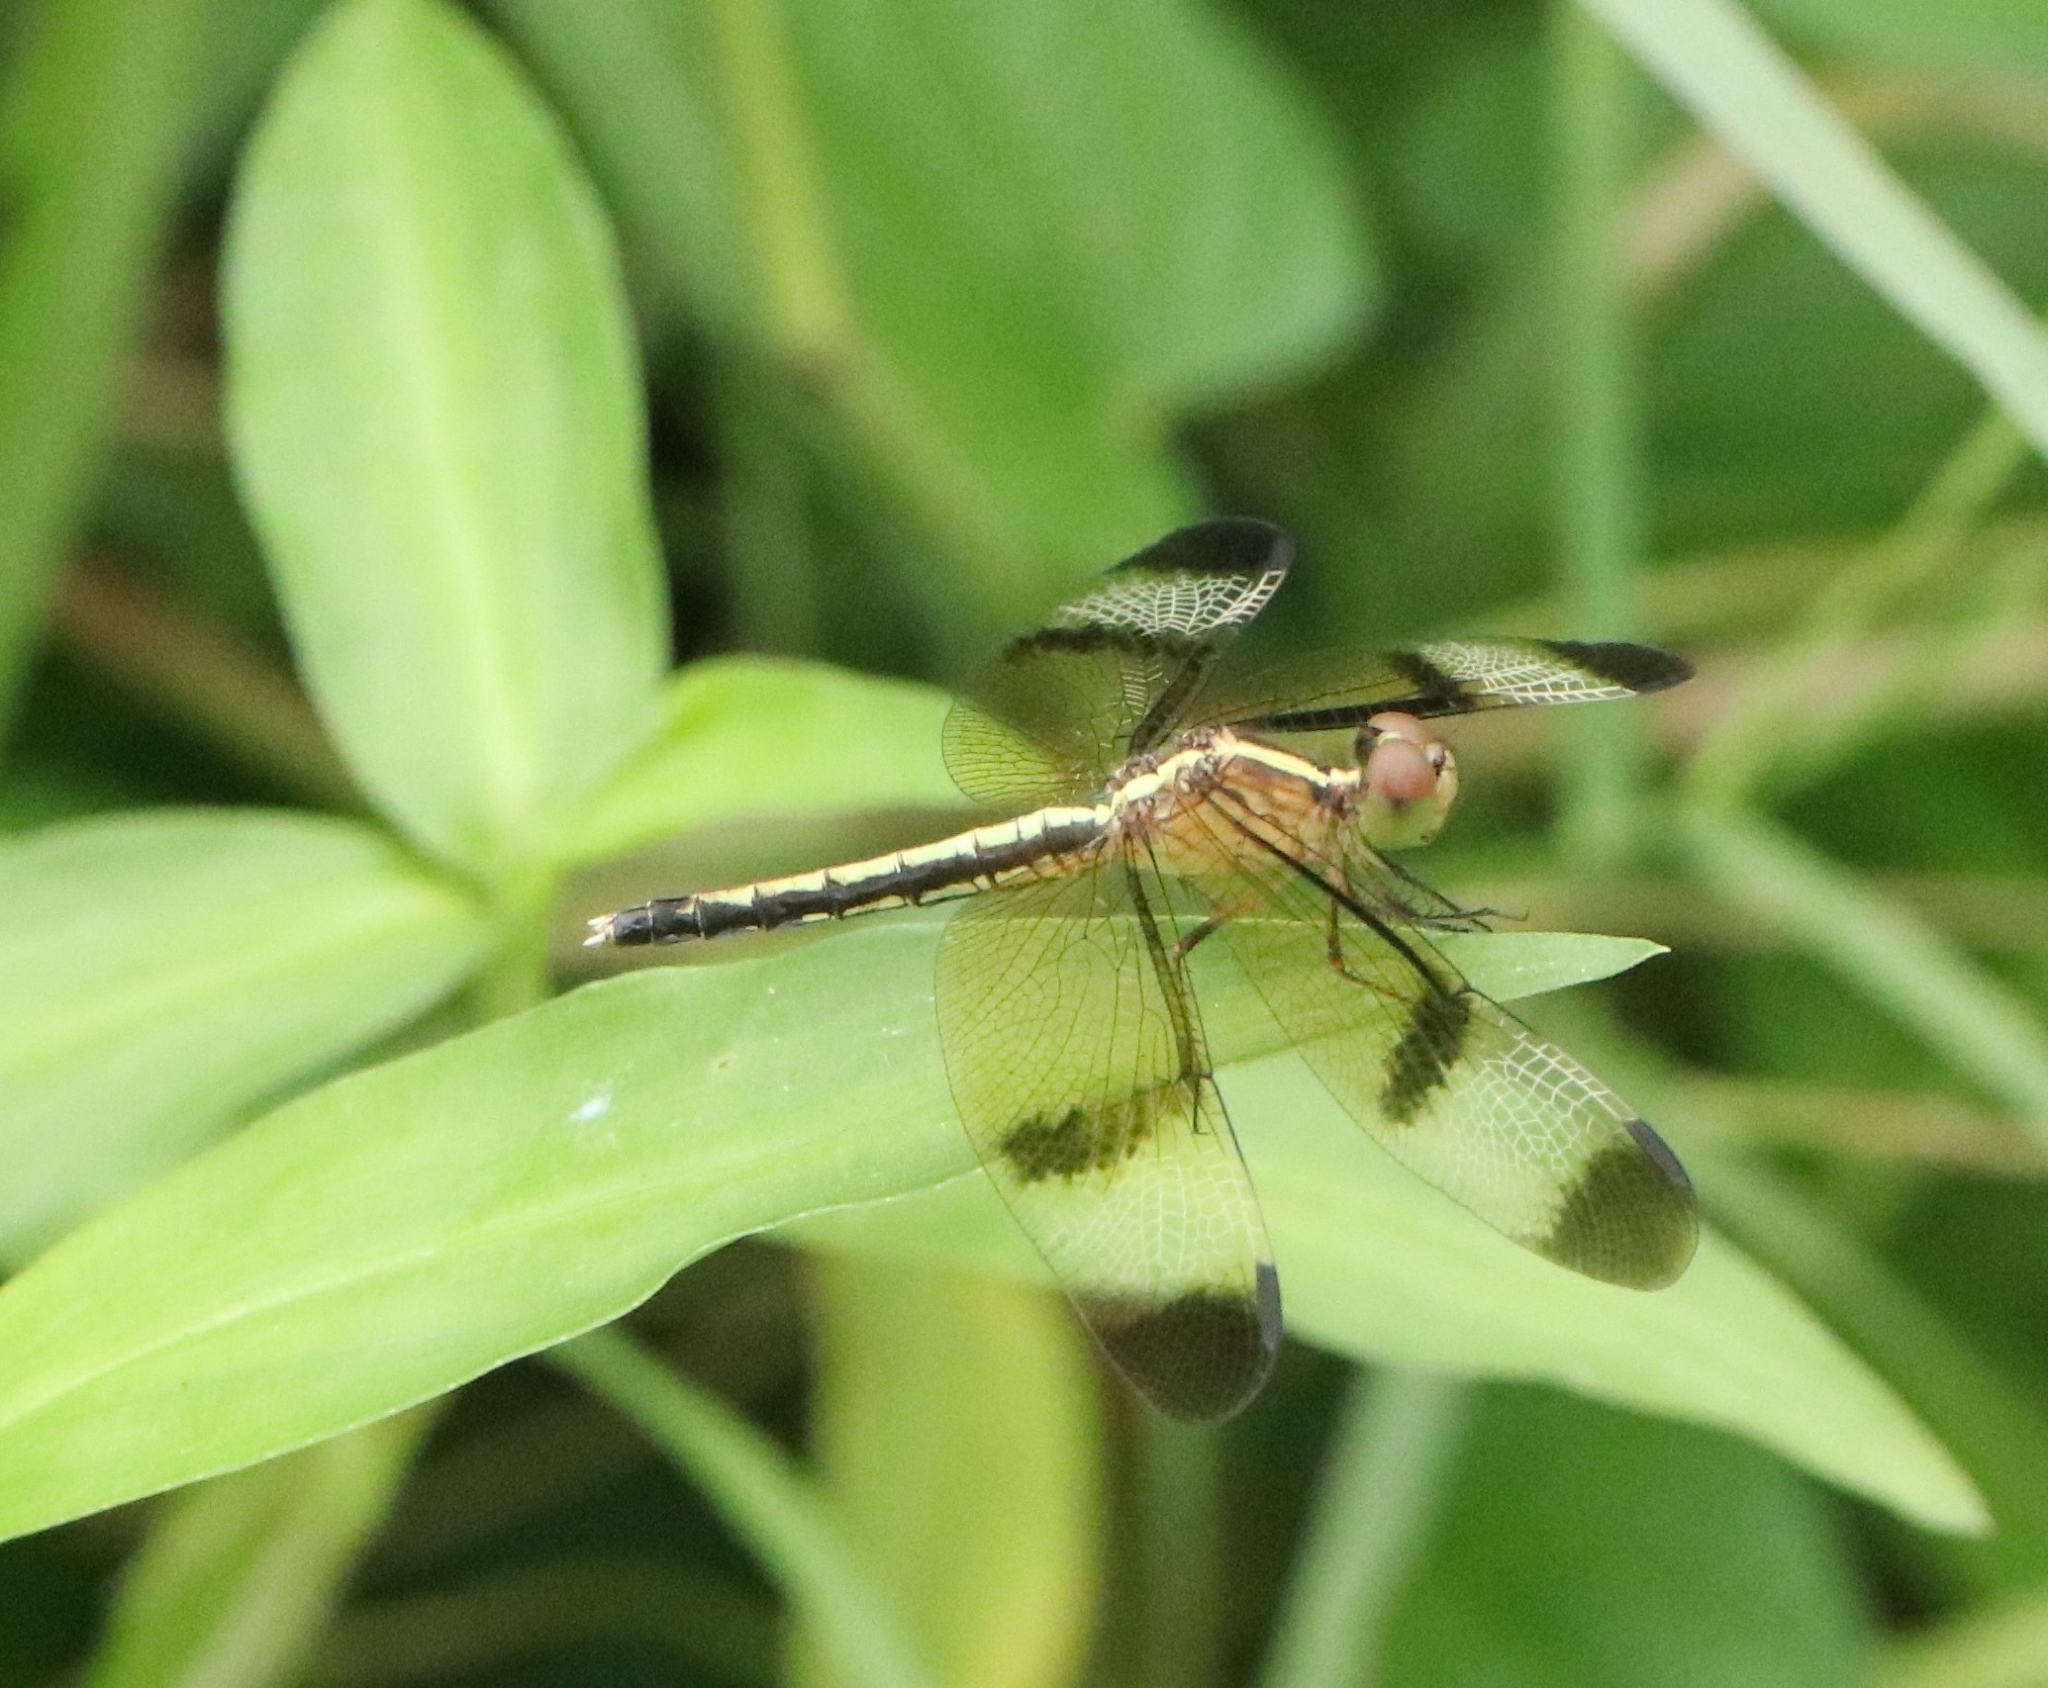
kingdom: Animalia
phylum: Arthropoda
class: Insecta
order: Odonata
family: Libellulidae
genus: Neurothemis
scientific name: Neurothemis tullia
